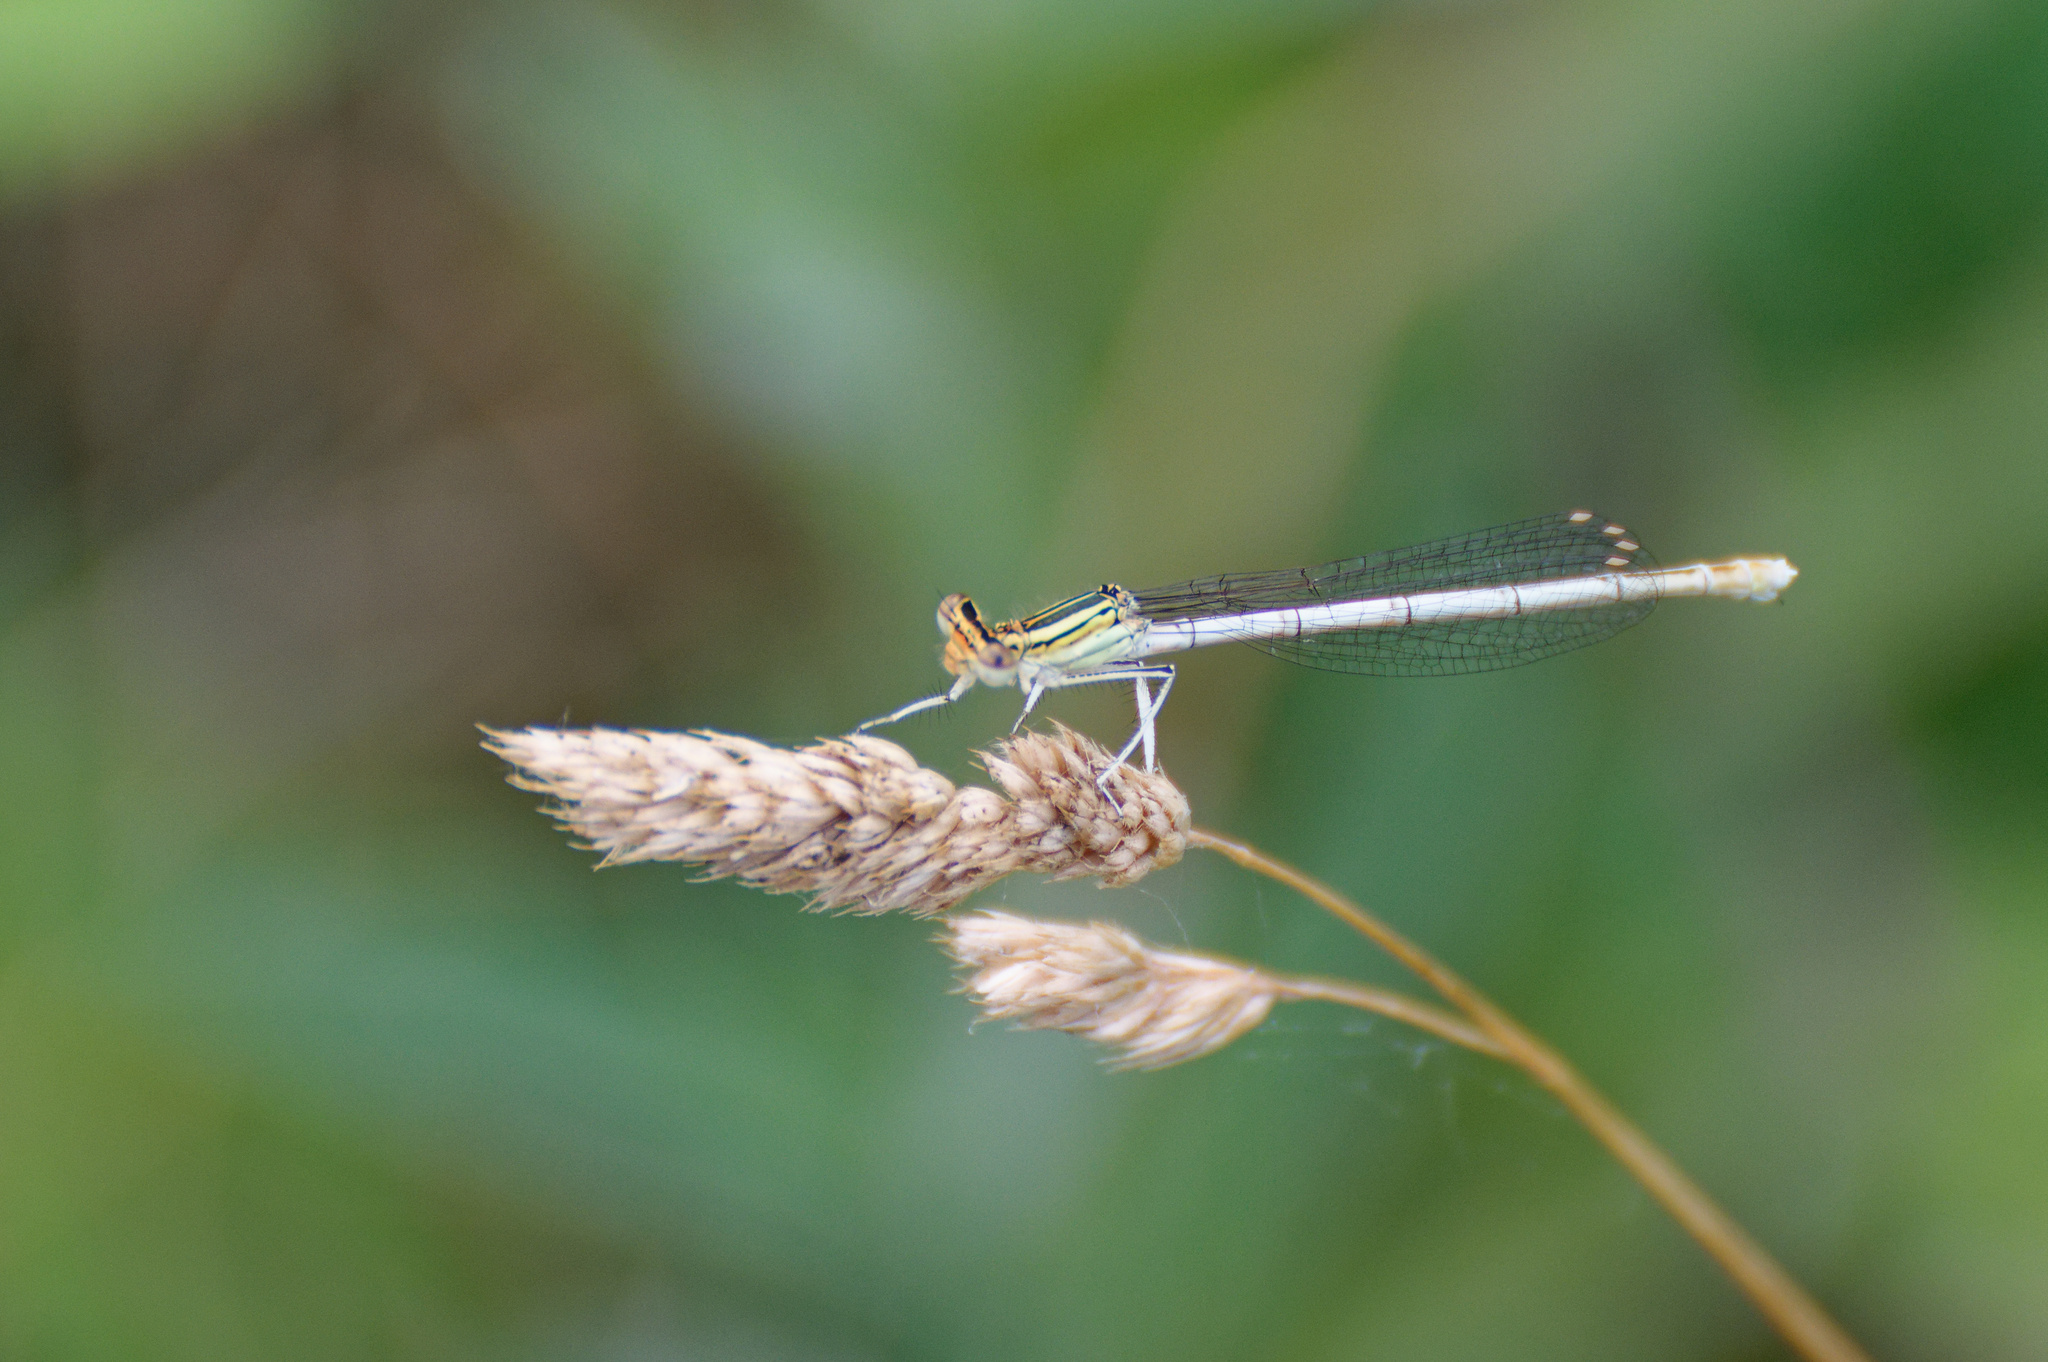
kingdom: Animalia
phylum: Arthropoda
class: Insecta
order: Odonata
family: Platycnemididae
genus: Platycnemis
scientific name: Platycnemis pennipes
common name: White-legged damselfly
